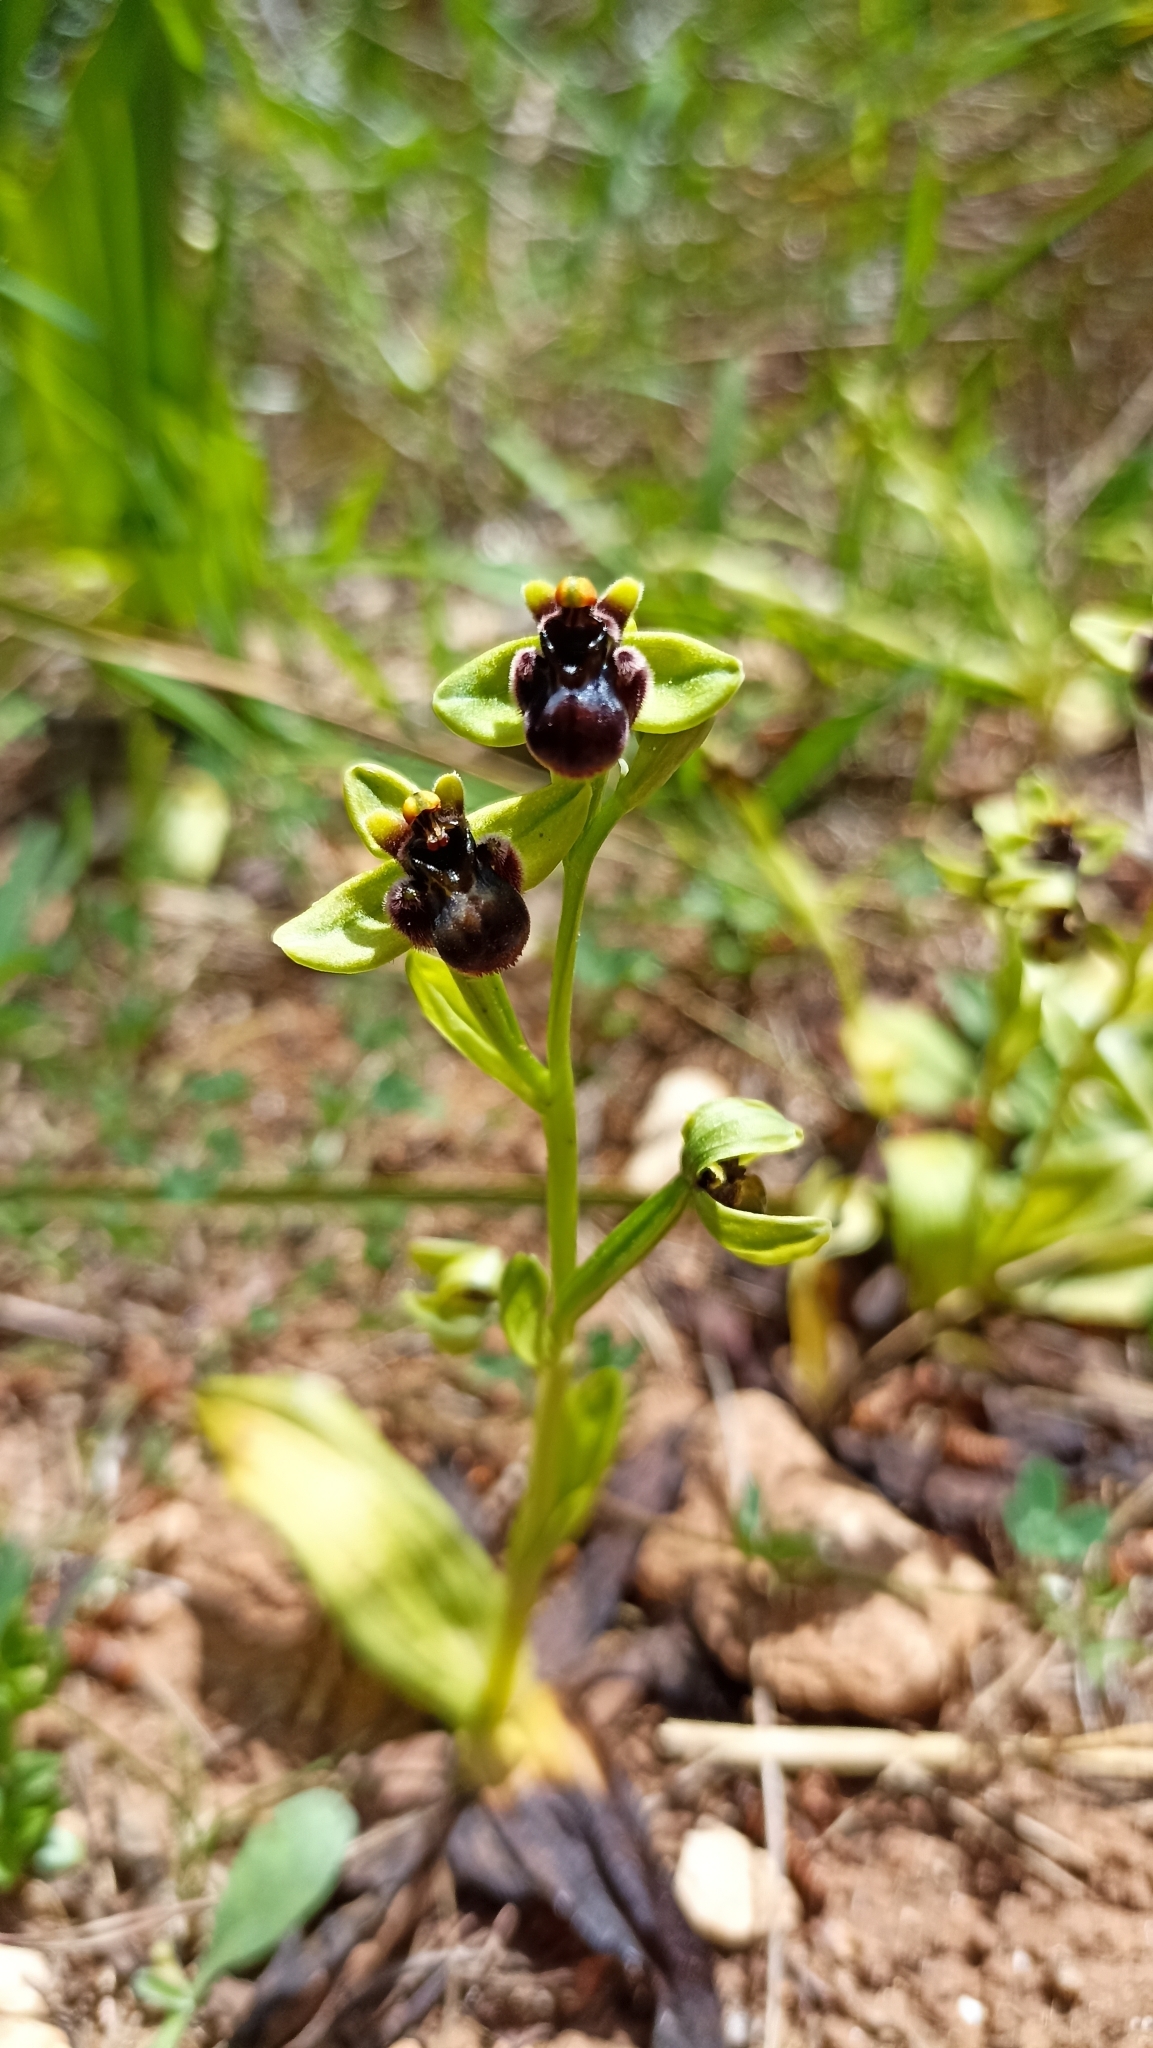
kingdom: Plantae
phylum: Tracheophyta
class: Liliopsida
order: Asparagales
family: Orchidaceae
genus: Ophrys
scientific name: Ophrys bombyliflora
